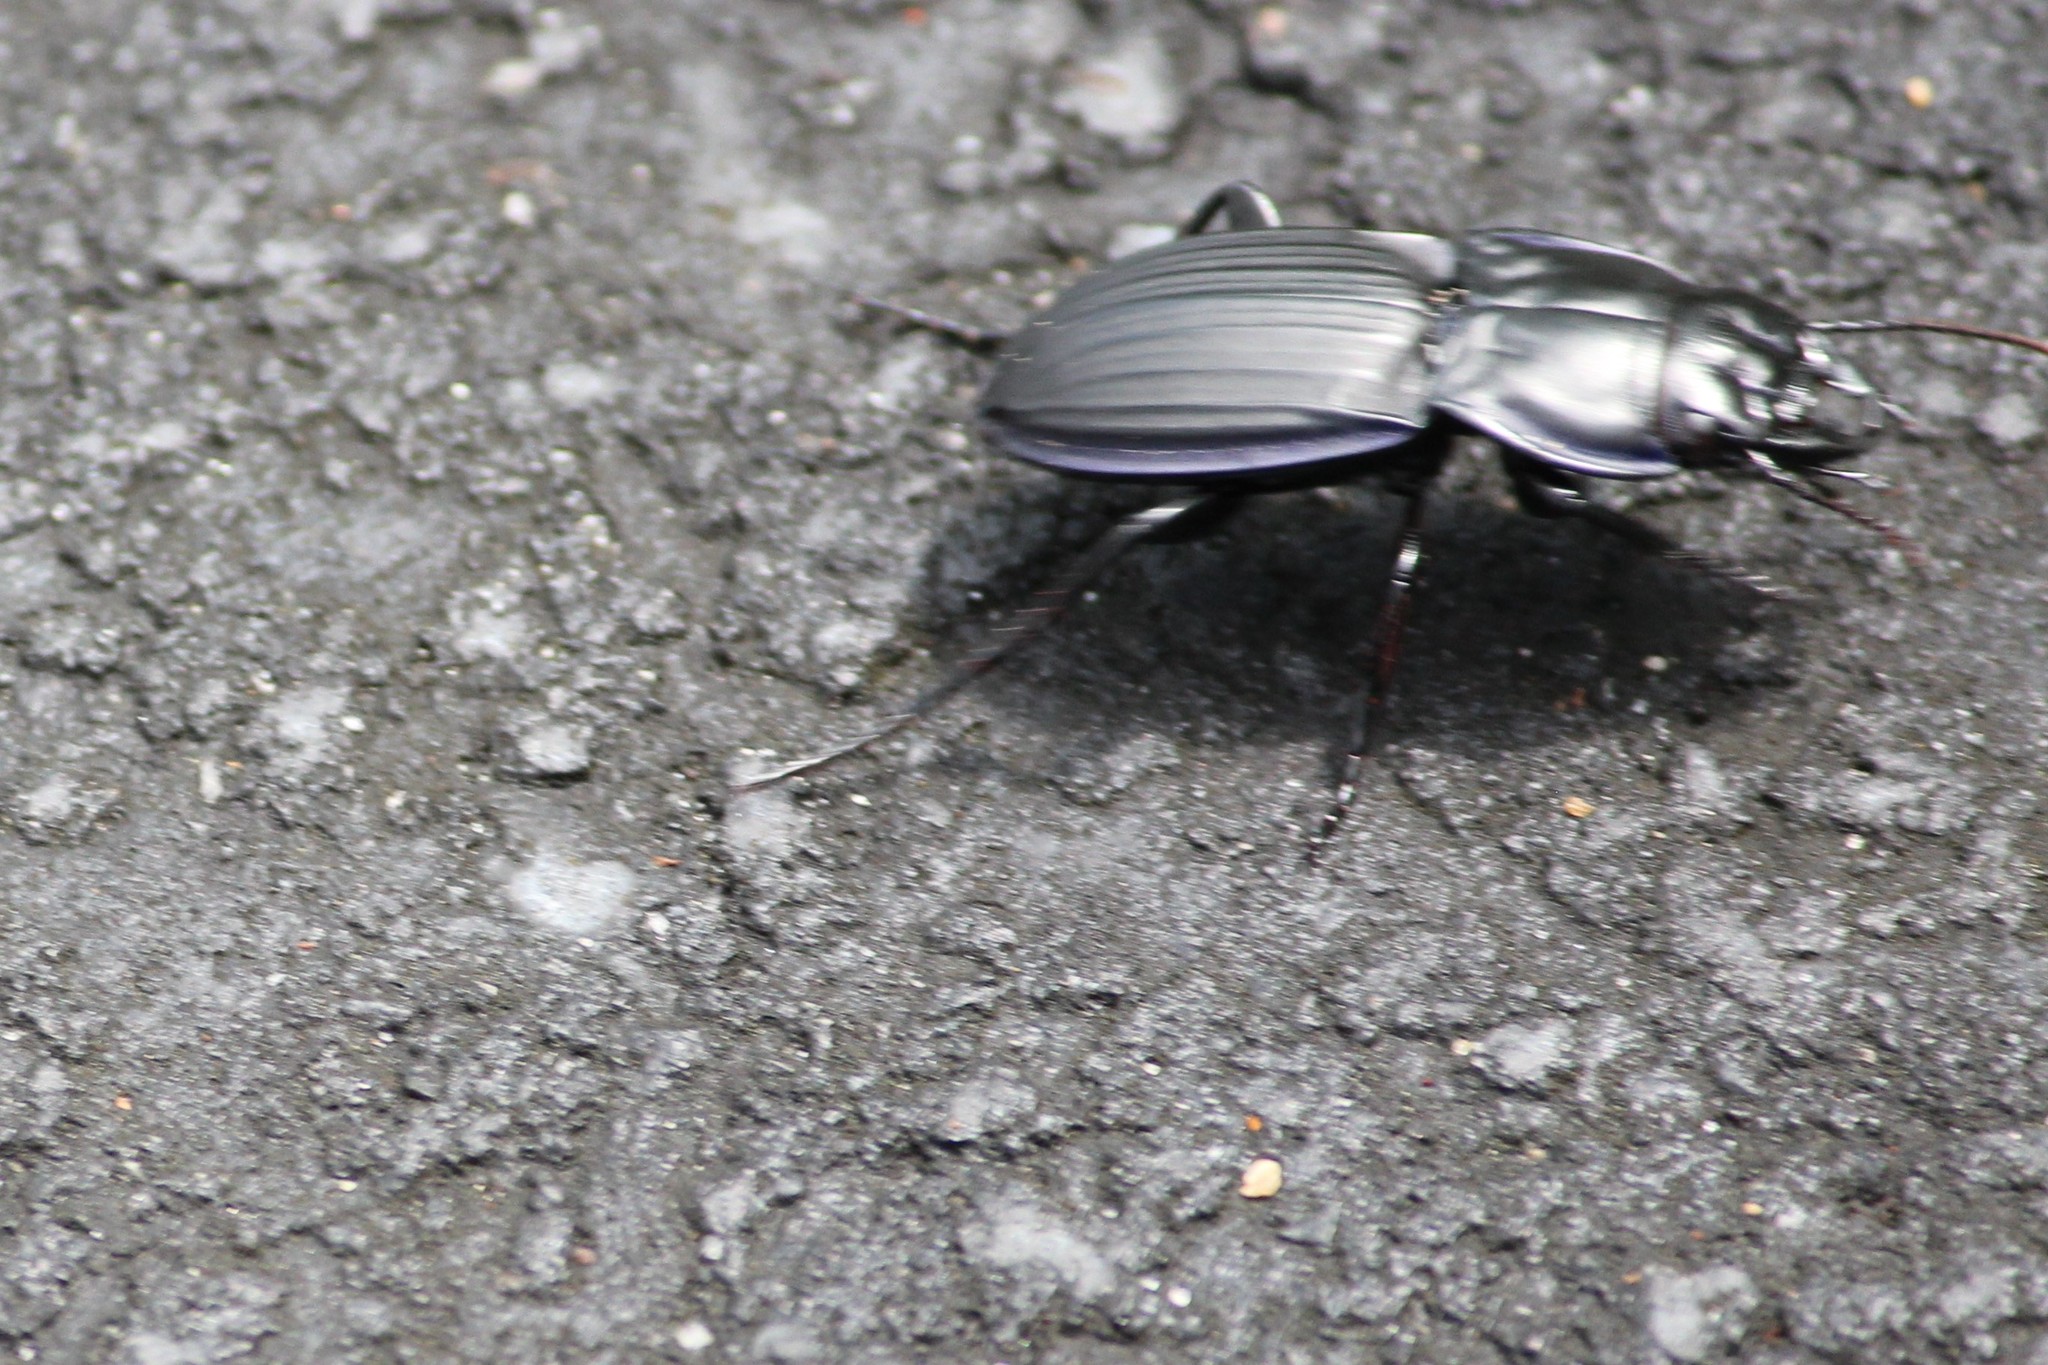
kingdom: Animalia
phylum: Arthropoda
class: Insecta
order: Coleoptera
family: Carabidae
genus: Pasimachus
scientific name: Pasimachus marginatus
